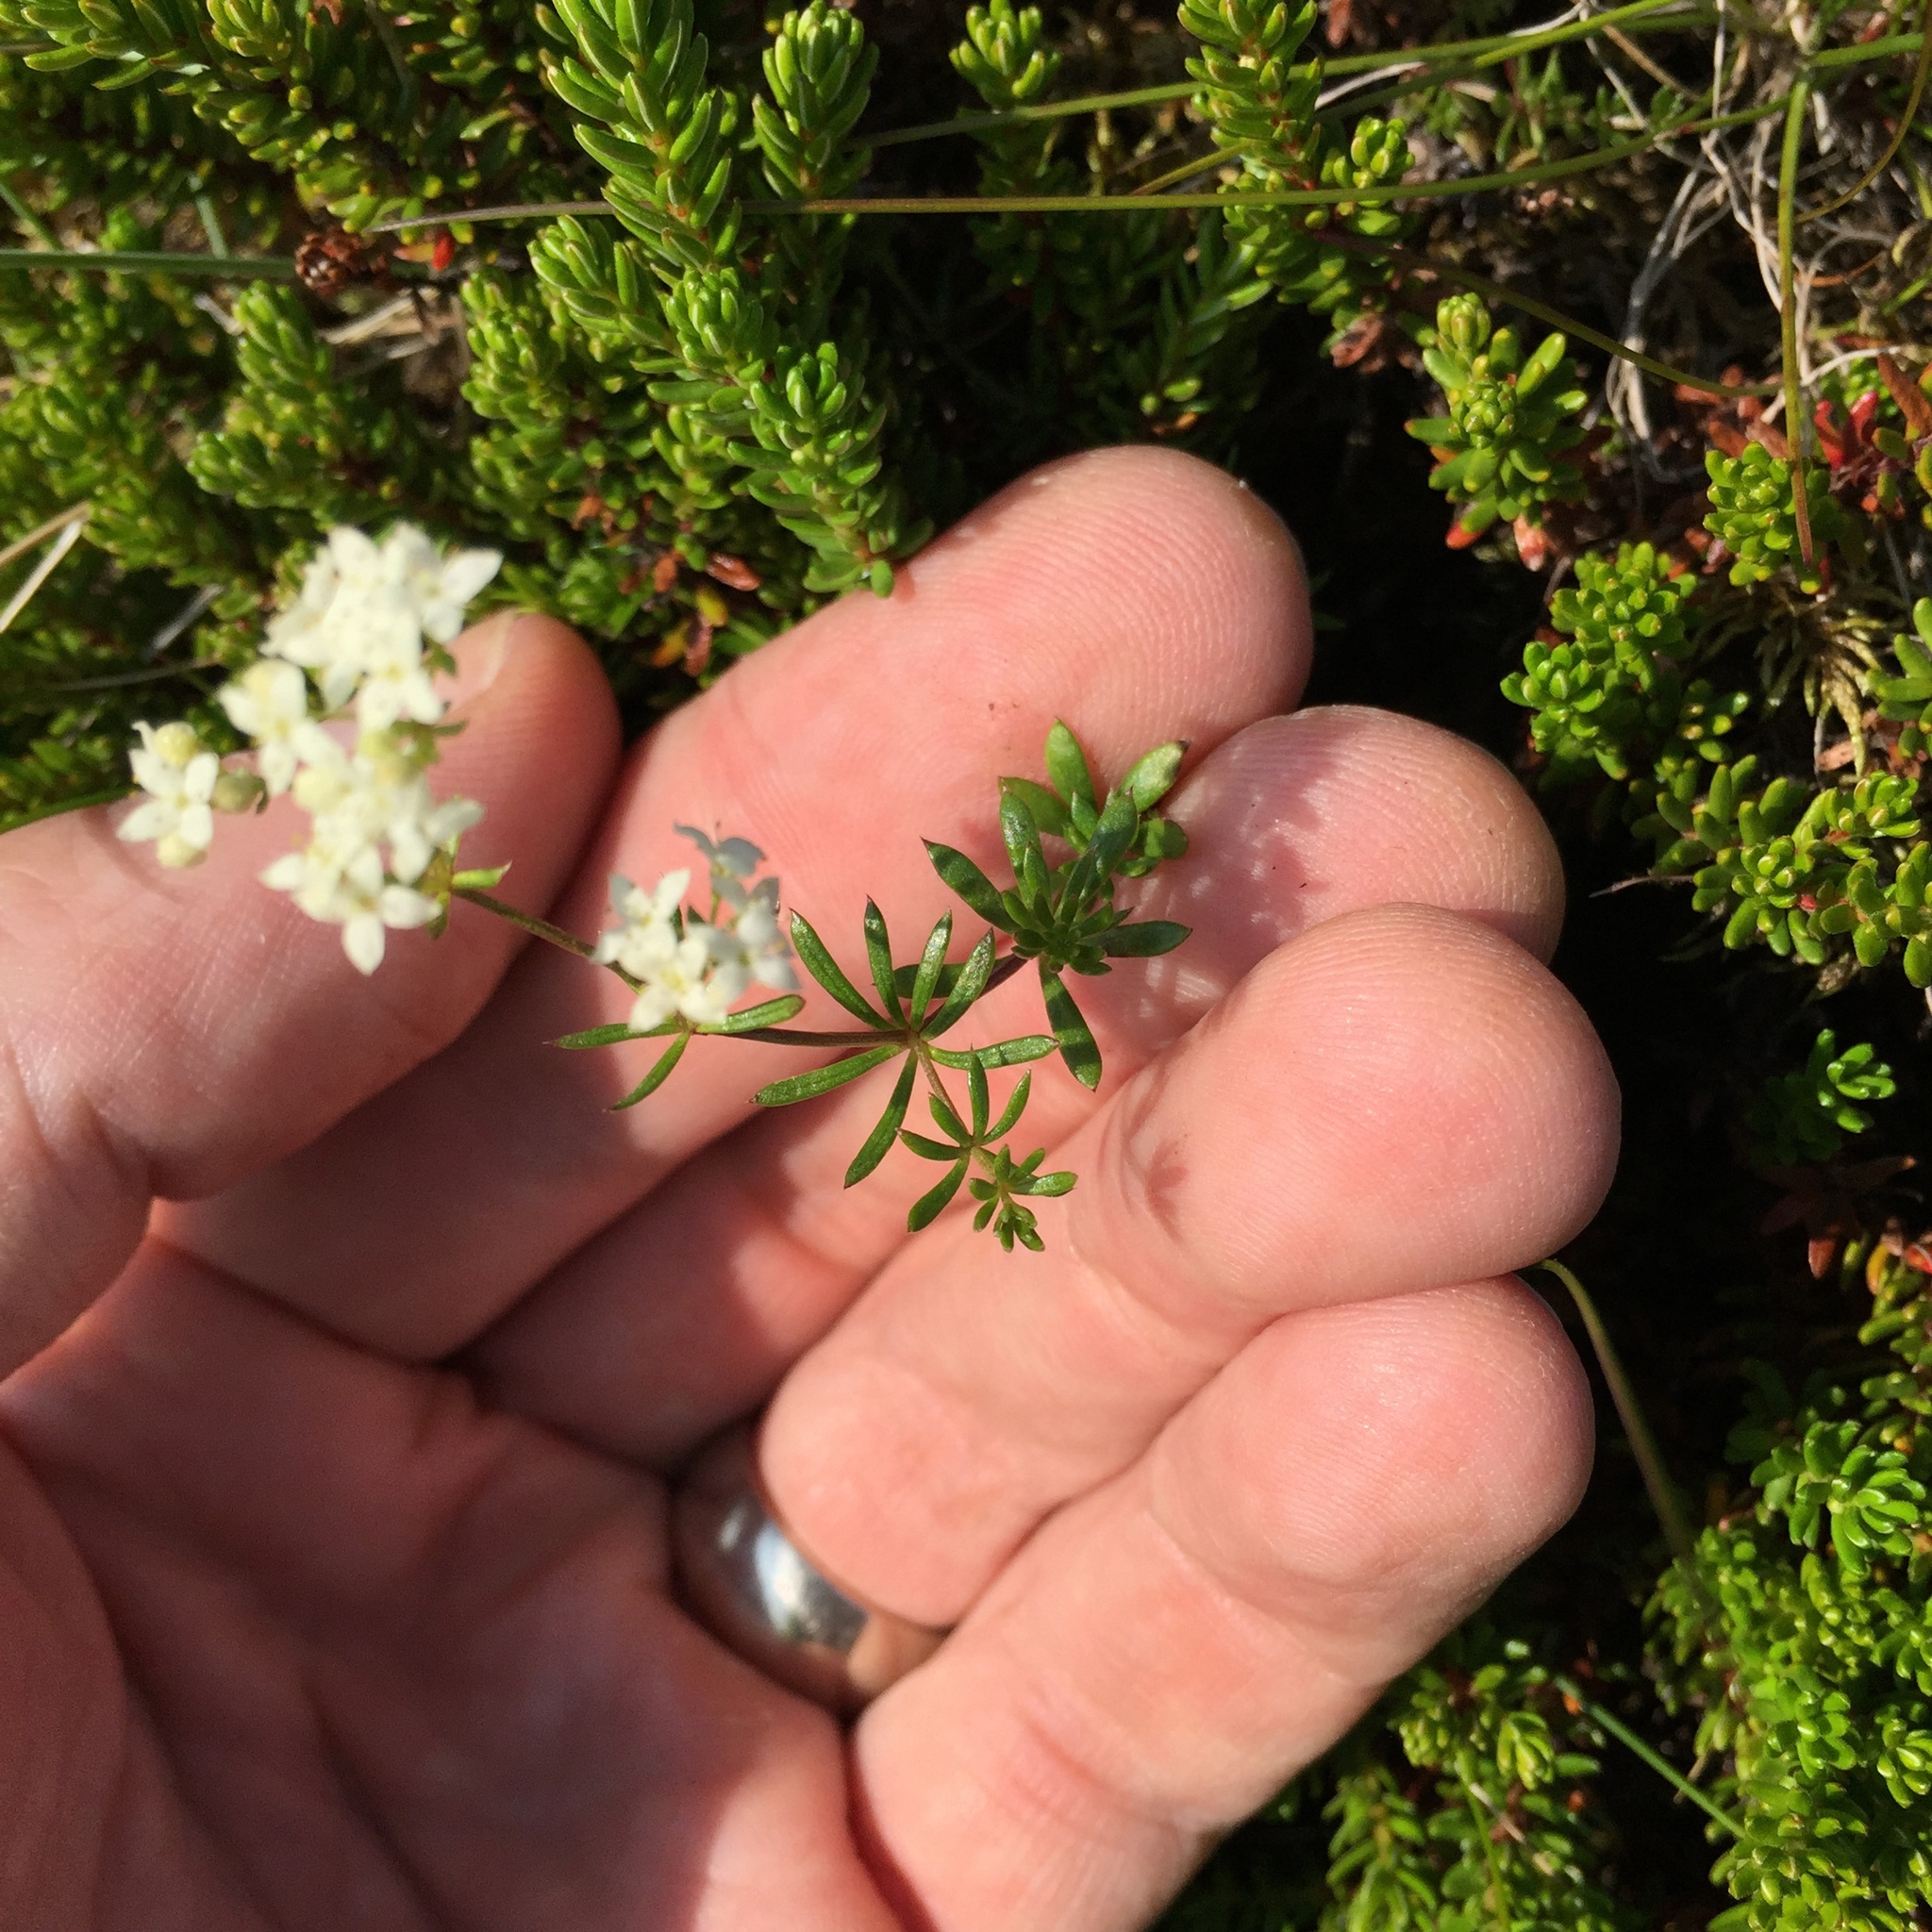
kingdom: Plantae
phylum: Tracheophyta
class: Magnoliopsida
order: Gentianales
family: Rubiaceae
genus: Galium
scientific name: Galium normanii
